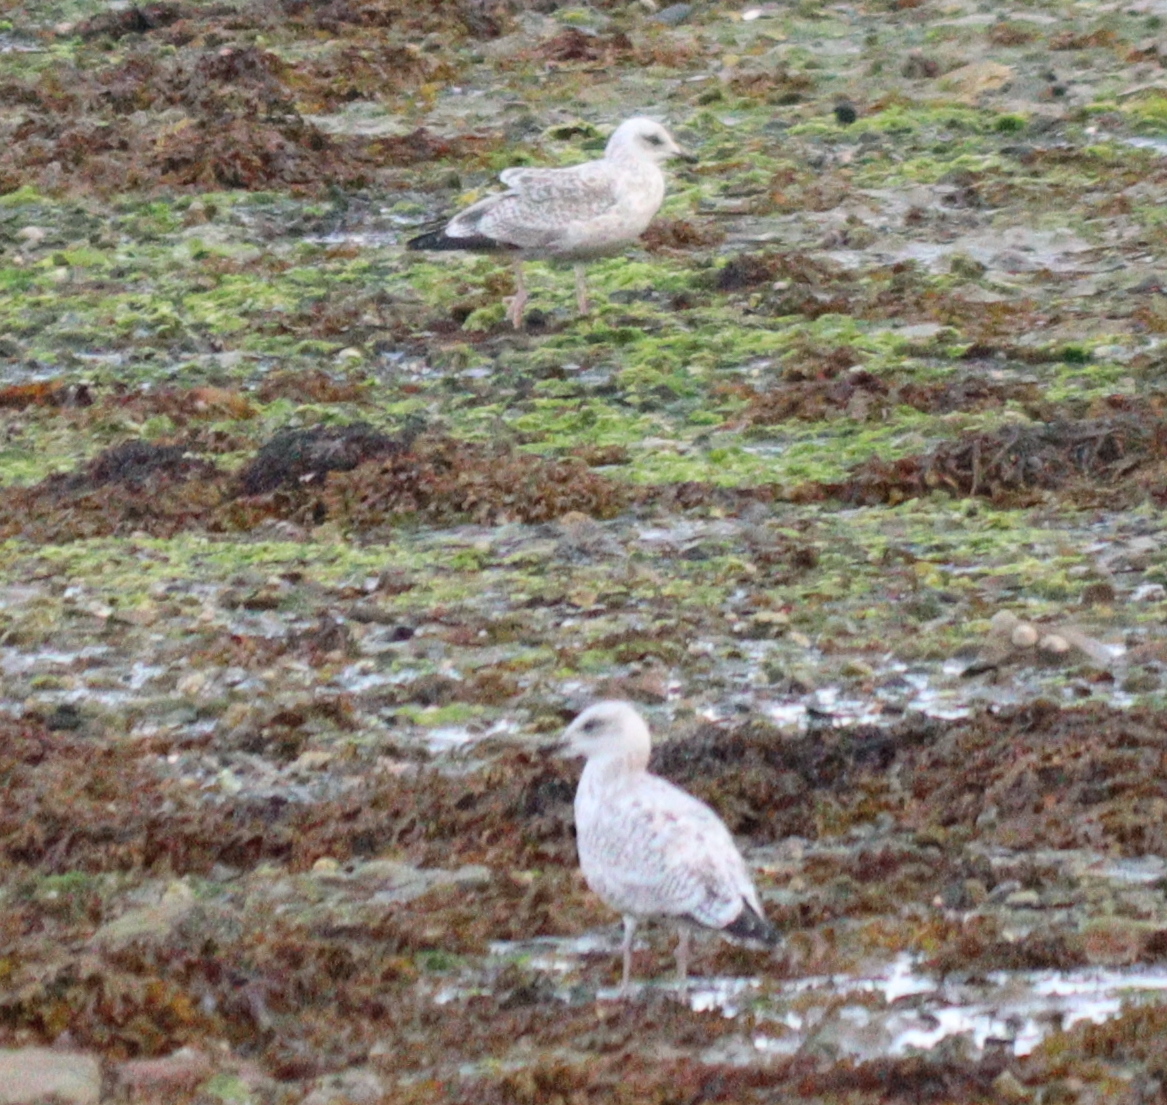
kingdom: Animalia
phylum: Chordata
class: Aves
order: Charadriiformes
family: Laridae
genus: Larus
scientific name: Larus argentatus
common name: Herring gull
